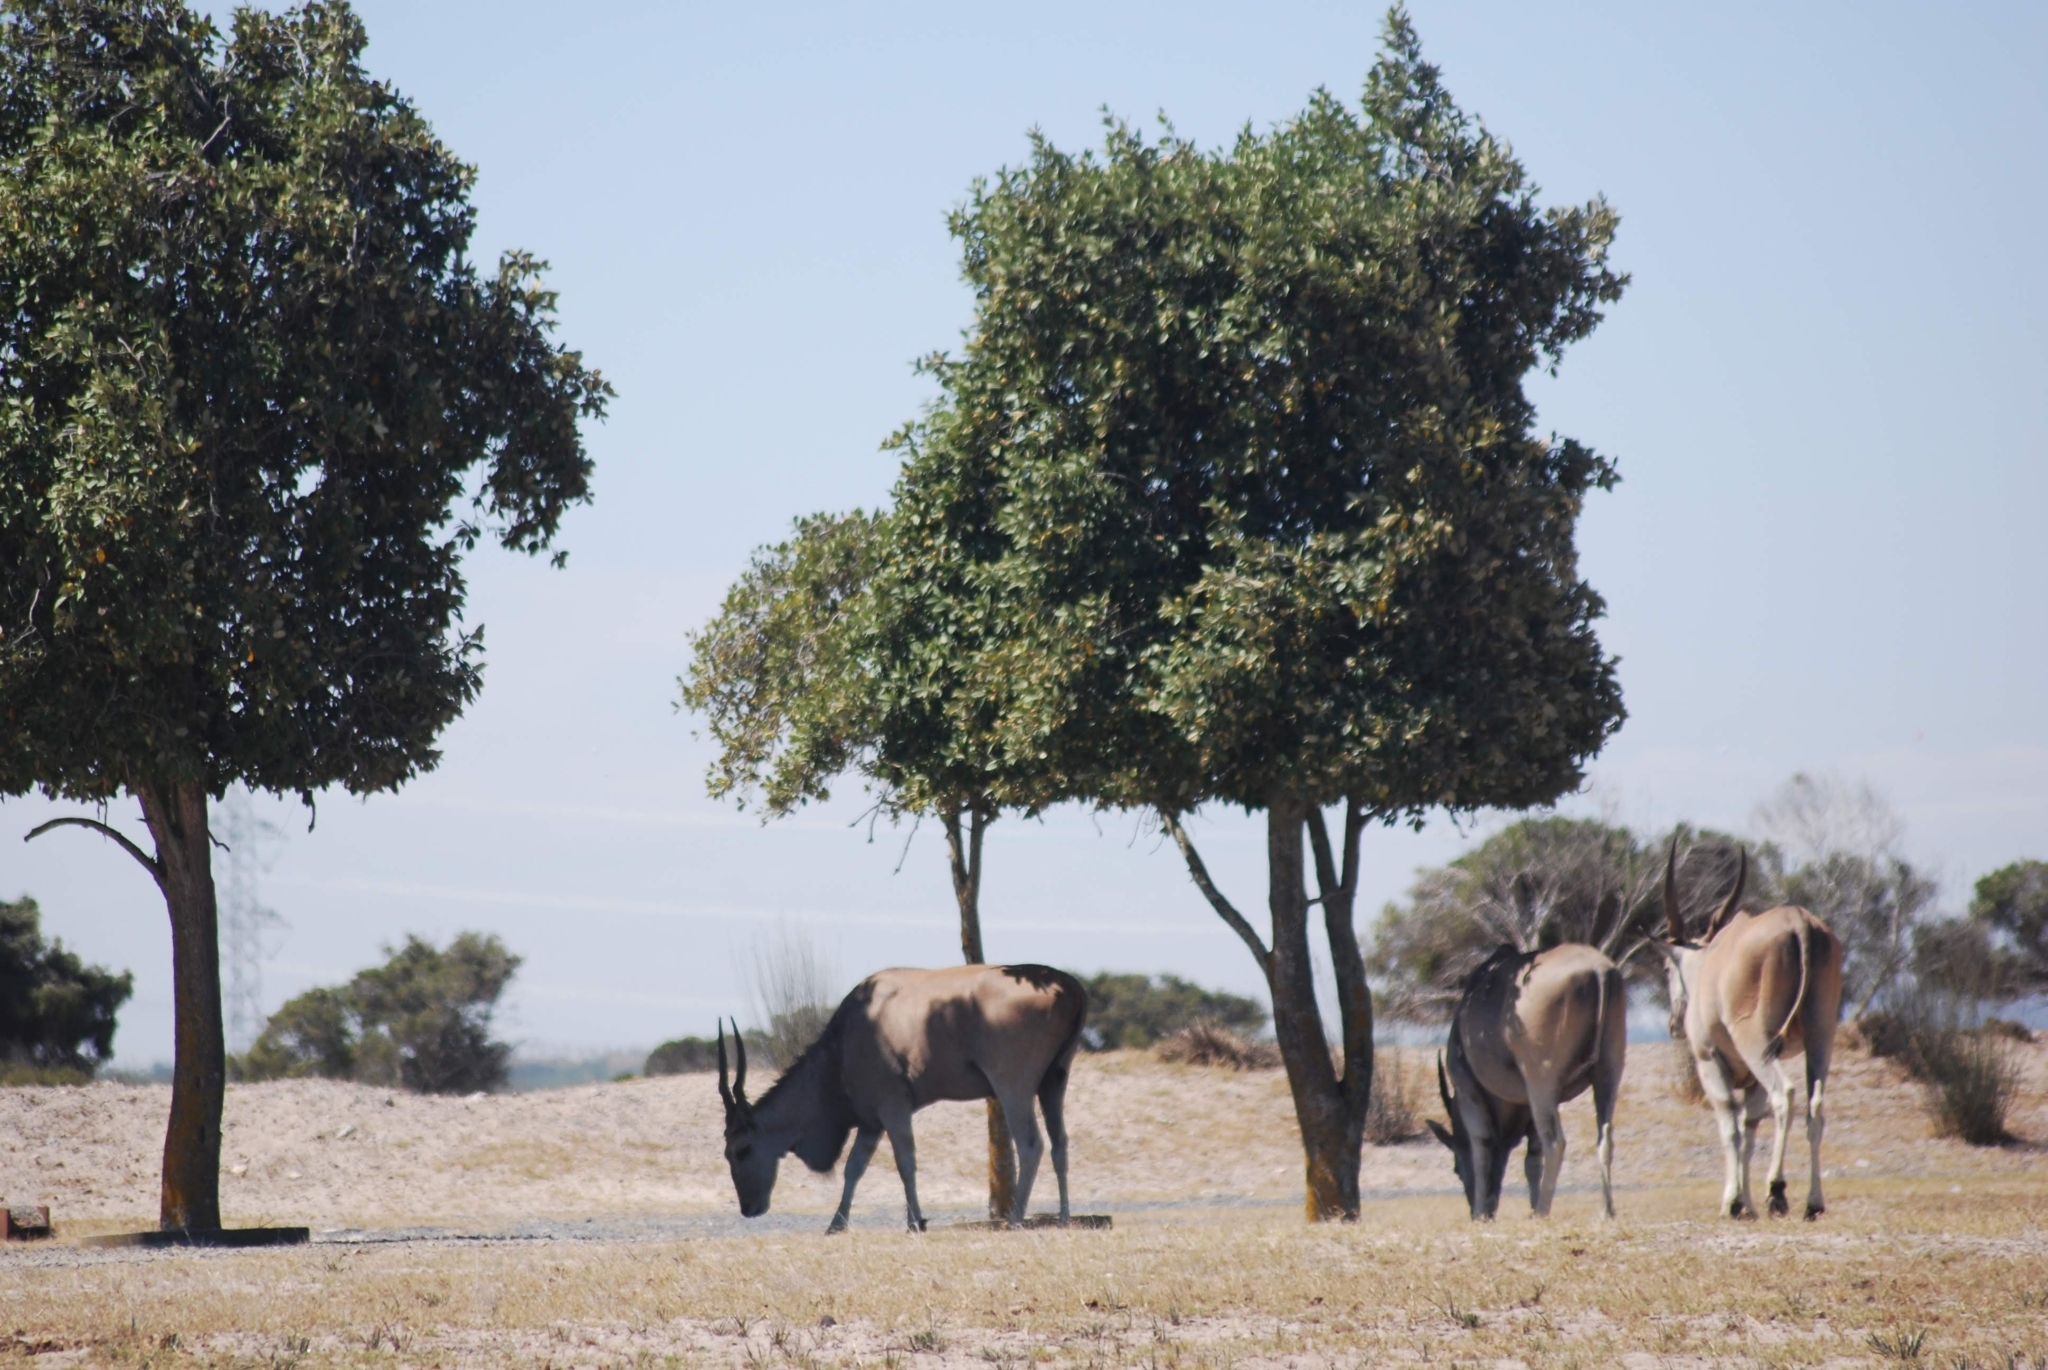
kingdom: Animalia
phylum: Chordata
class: Mammalia
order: Artiodactyla
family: Bovidae
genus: Taurotragus
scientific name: Taurotragus oryx
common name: Common eland
